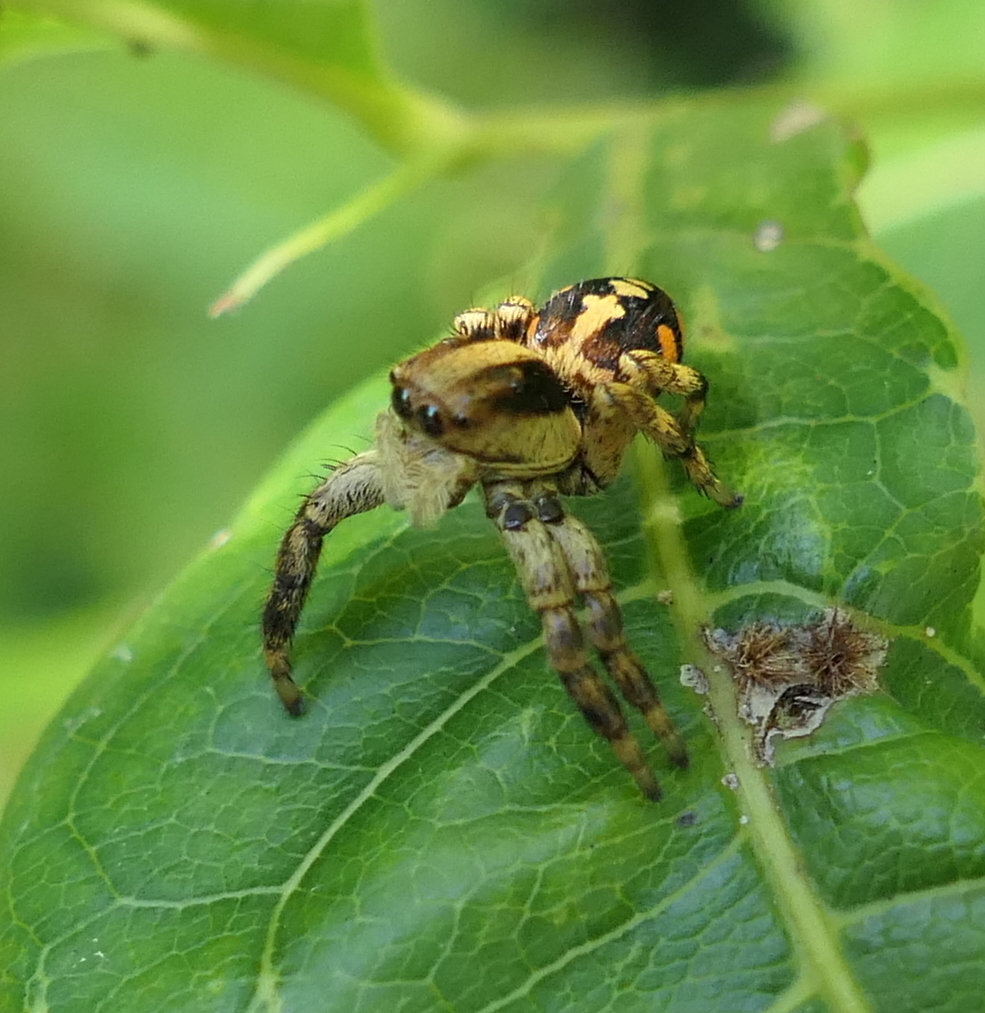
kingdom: Animalia
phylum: Arthropoda
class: Arachnida
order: Araneae
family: Salticidae
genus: Phiale
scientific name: Phiale guttata
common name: Jumping spiders
